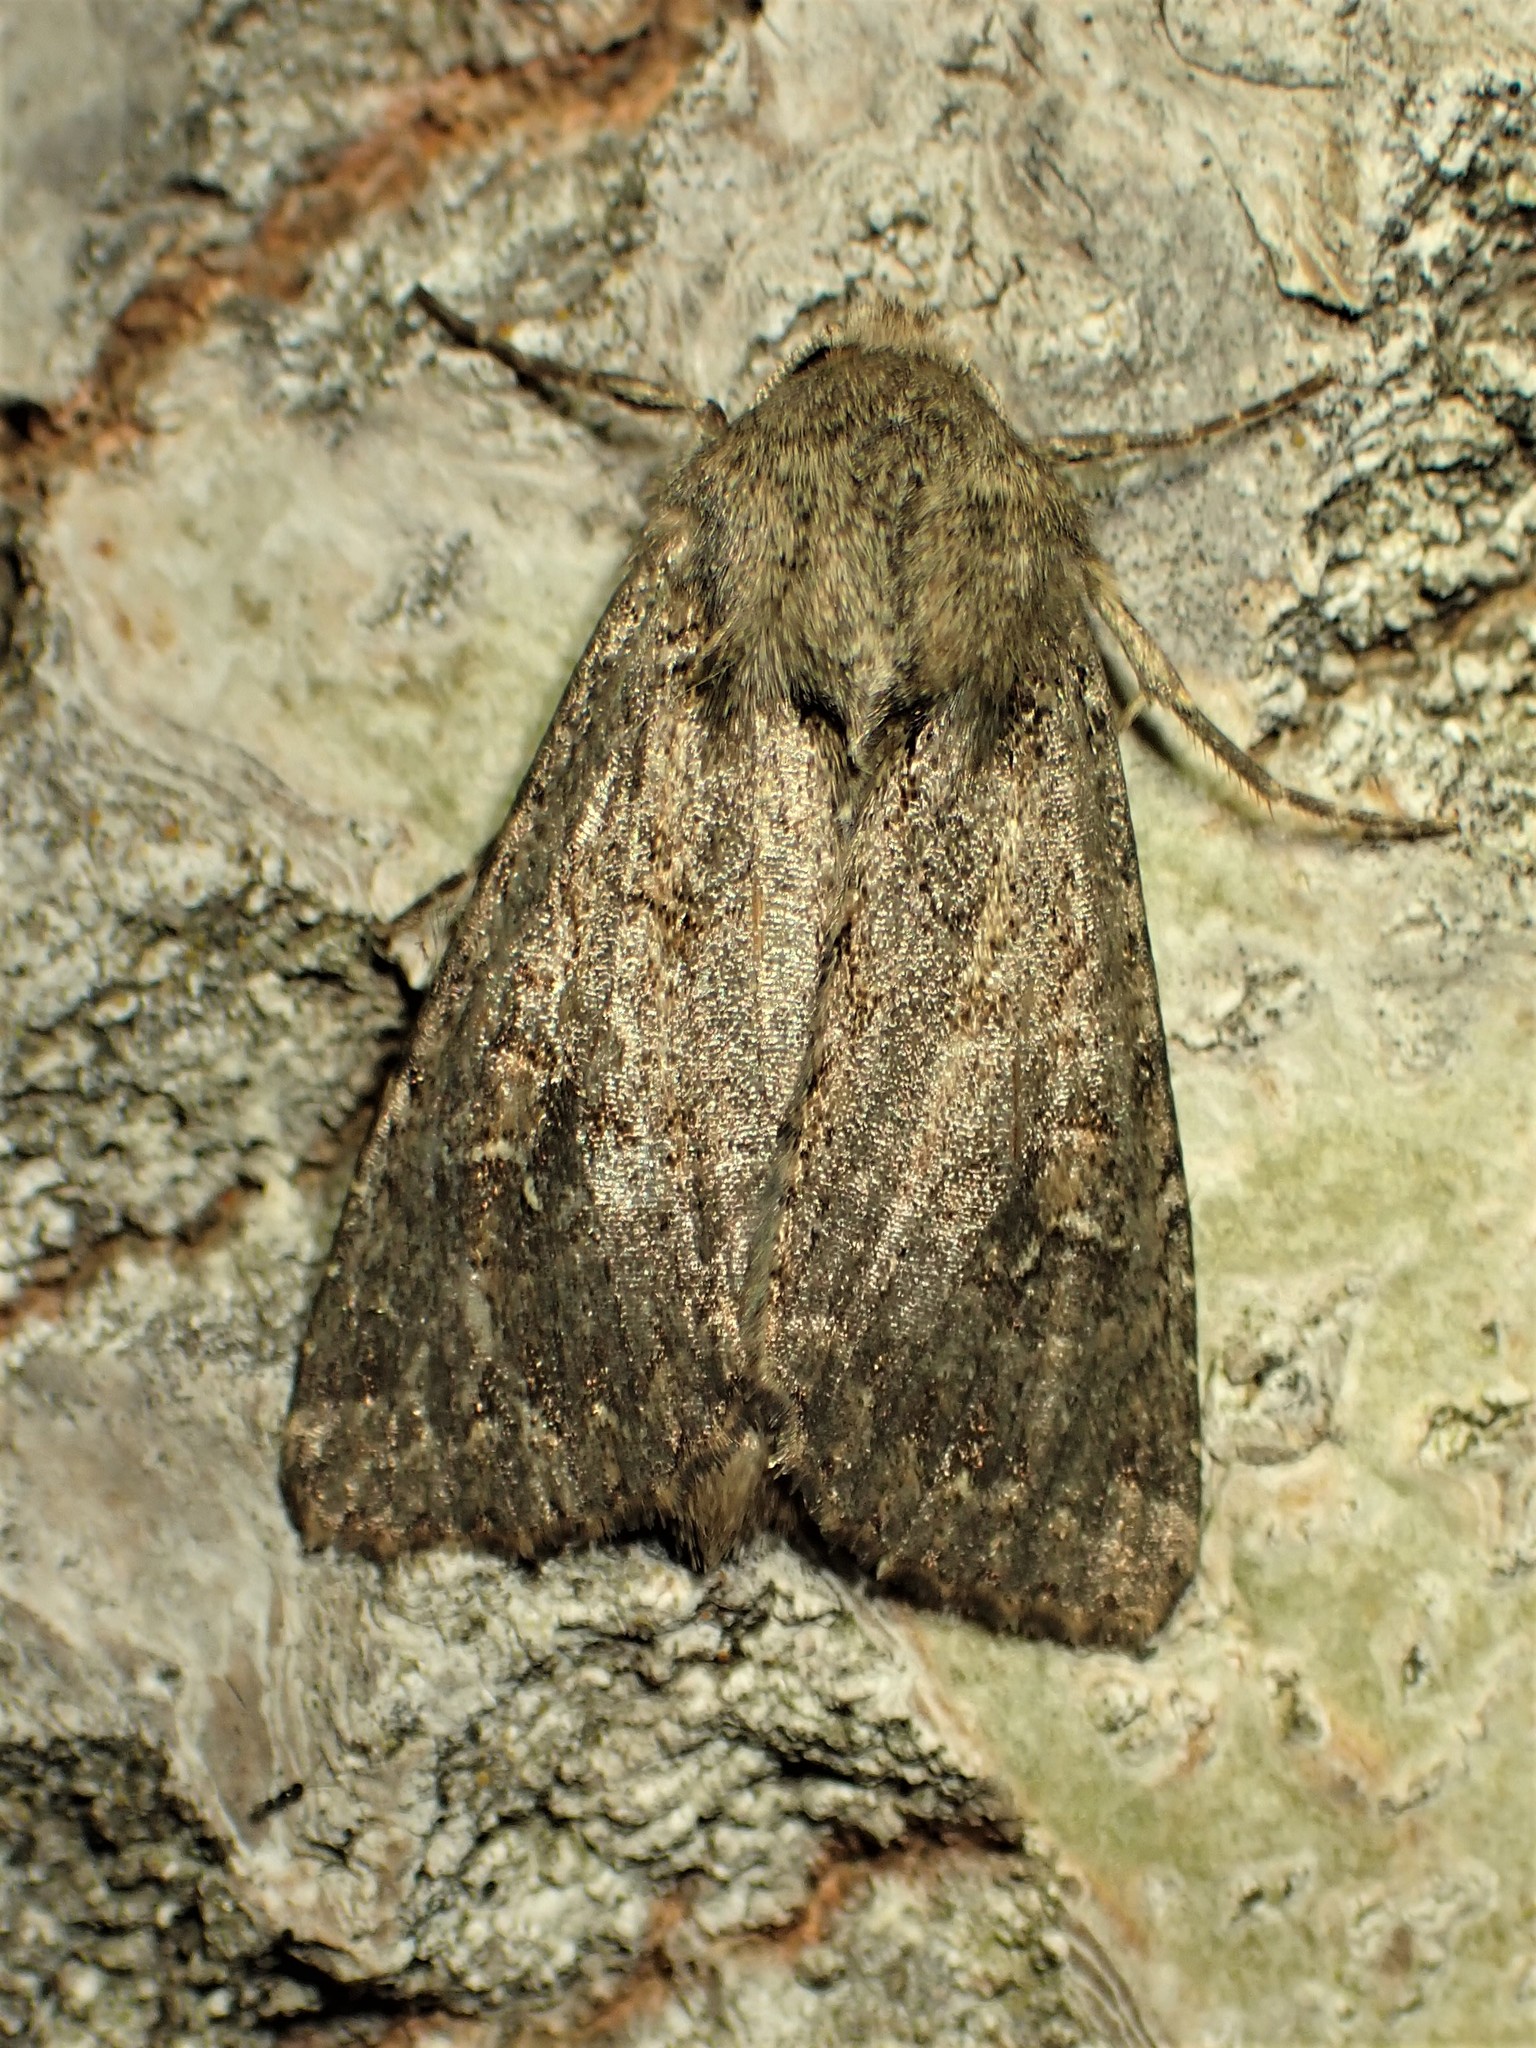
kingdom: Animalia
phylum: Arthropoda
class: Insecta
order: Lepidoptera
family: Noctuidae
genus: Apamea
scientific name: Apamea devastator
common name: Glassy cutworm
